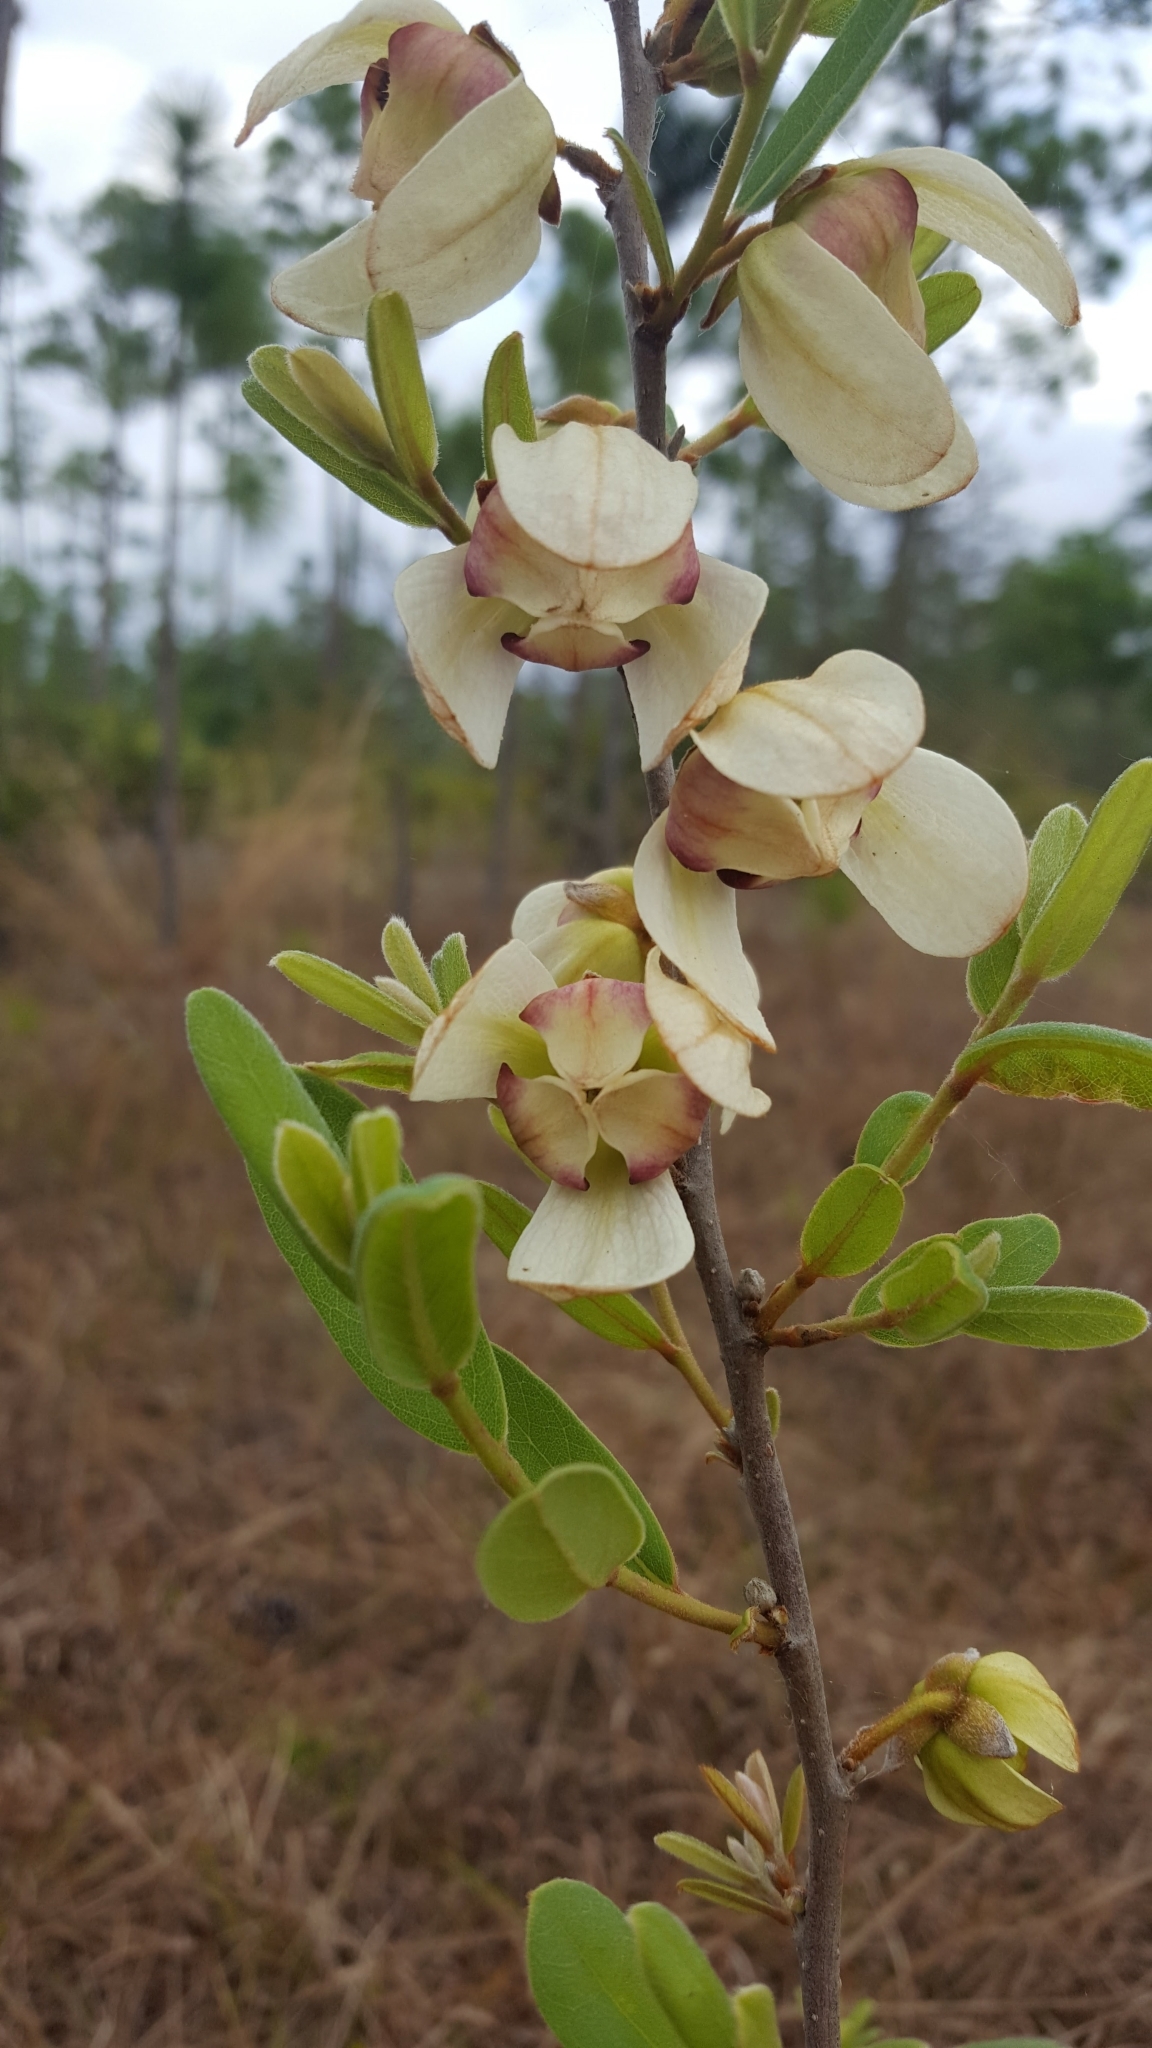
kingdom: Plantae
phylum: Tracheophyta
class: Magnoliopsida
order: Magnoliales
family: Annonaceae
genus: Asimina
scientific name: Asimina reticulata
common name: Flag pawpaw
